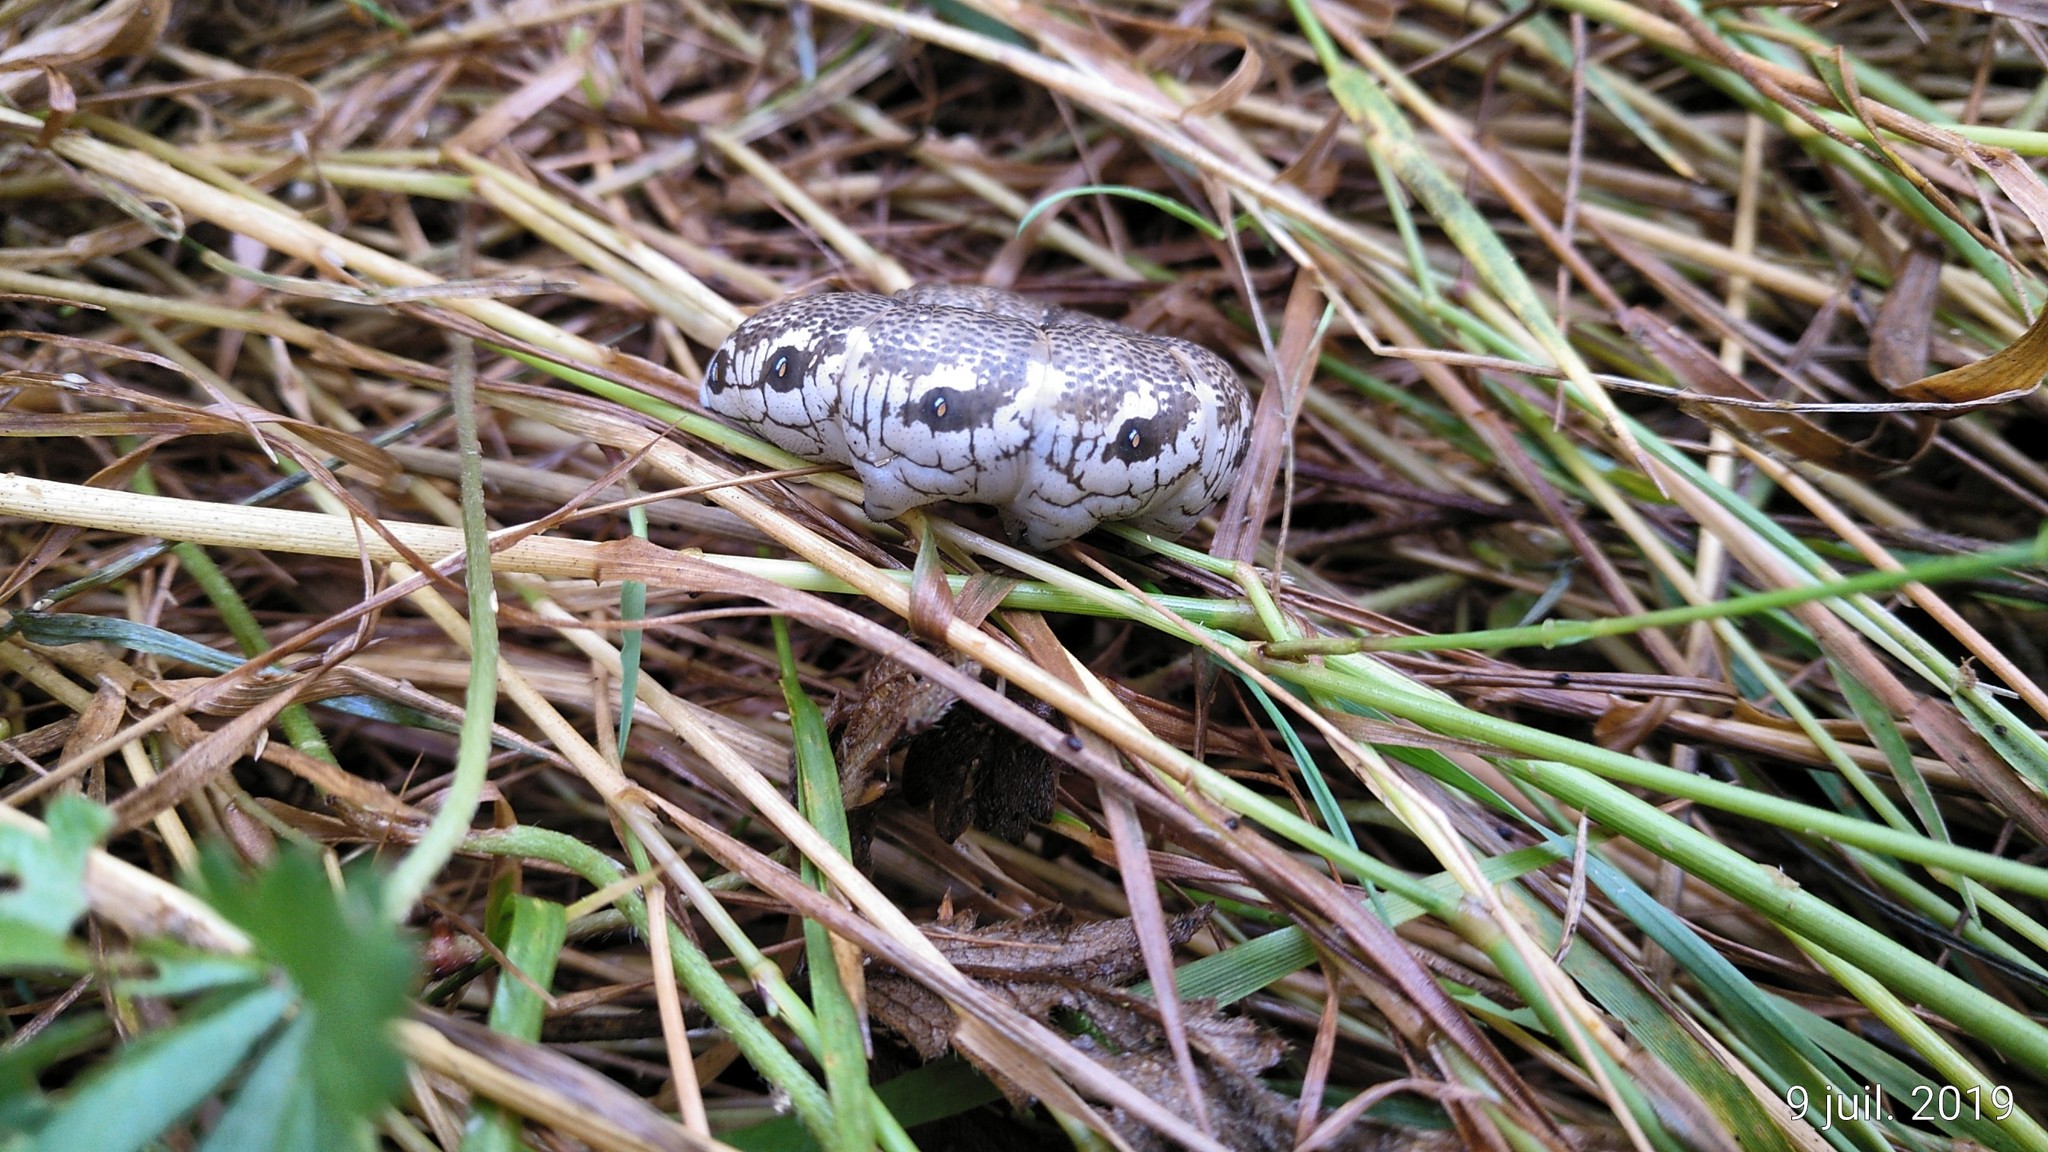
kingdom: Animalia
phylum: Arthropoda
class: Insecta
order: Lepidoptera
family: Sphingidae
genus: Proserpinus
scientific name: Proserpinus proserpina
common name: Willowherb hawkmoth
